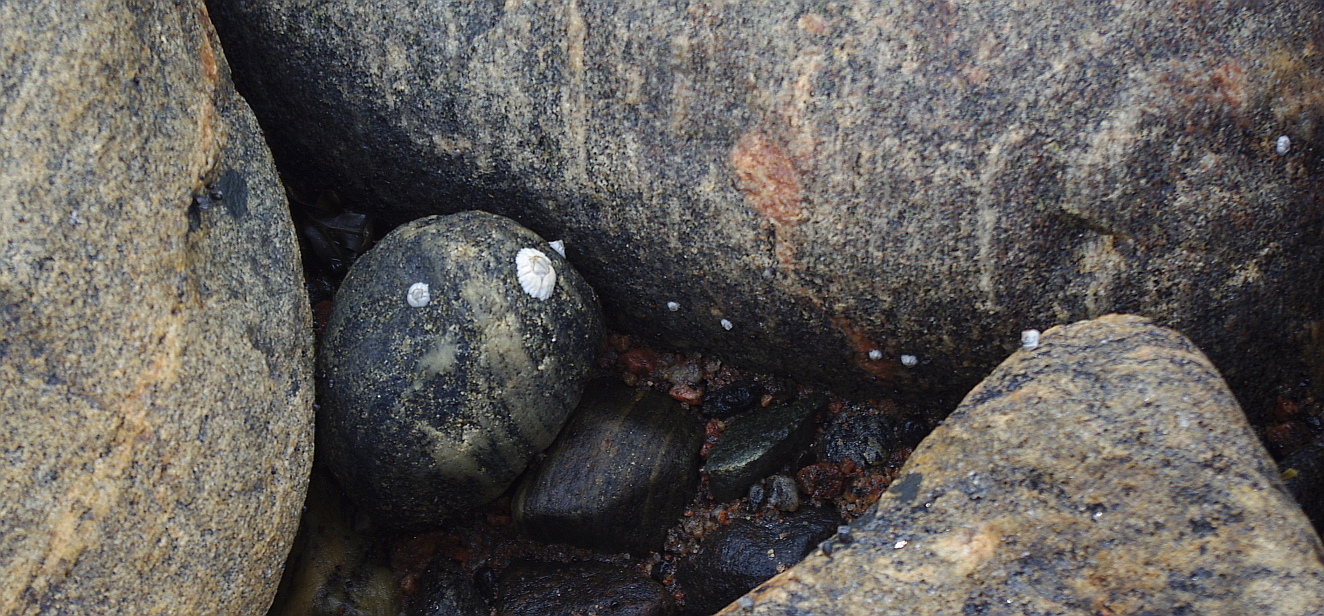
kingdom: Animalia
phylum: Arthropoda
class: Maxillopoda
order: Sessilia
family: Archaeobalanidae
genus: Semibalanus
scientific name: Semibalanus balanoides
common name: Acorn barnacle
